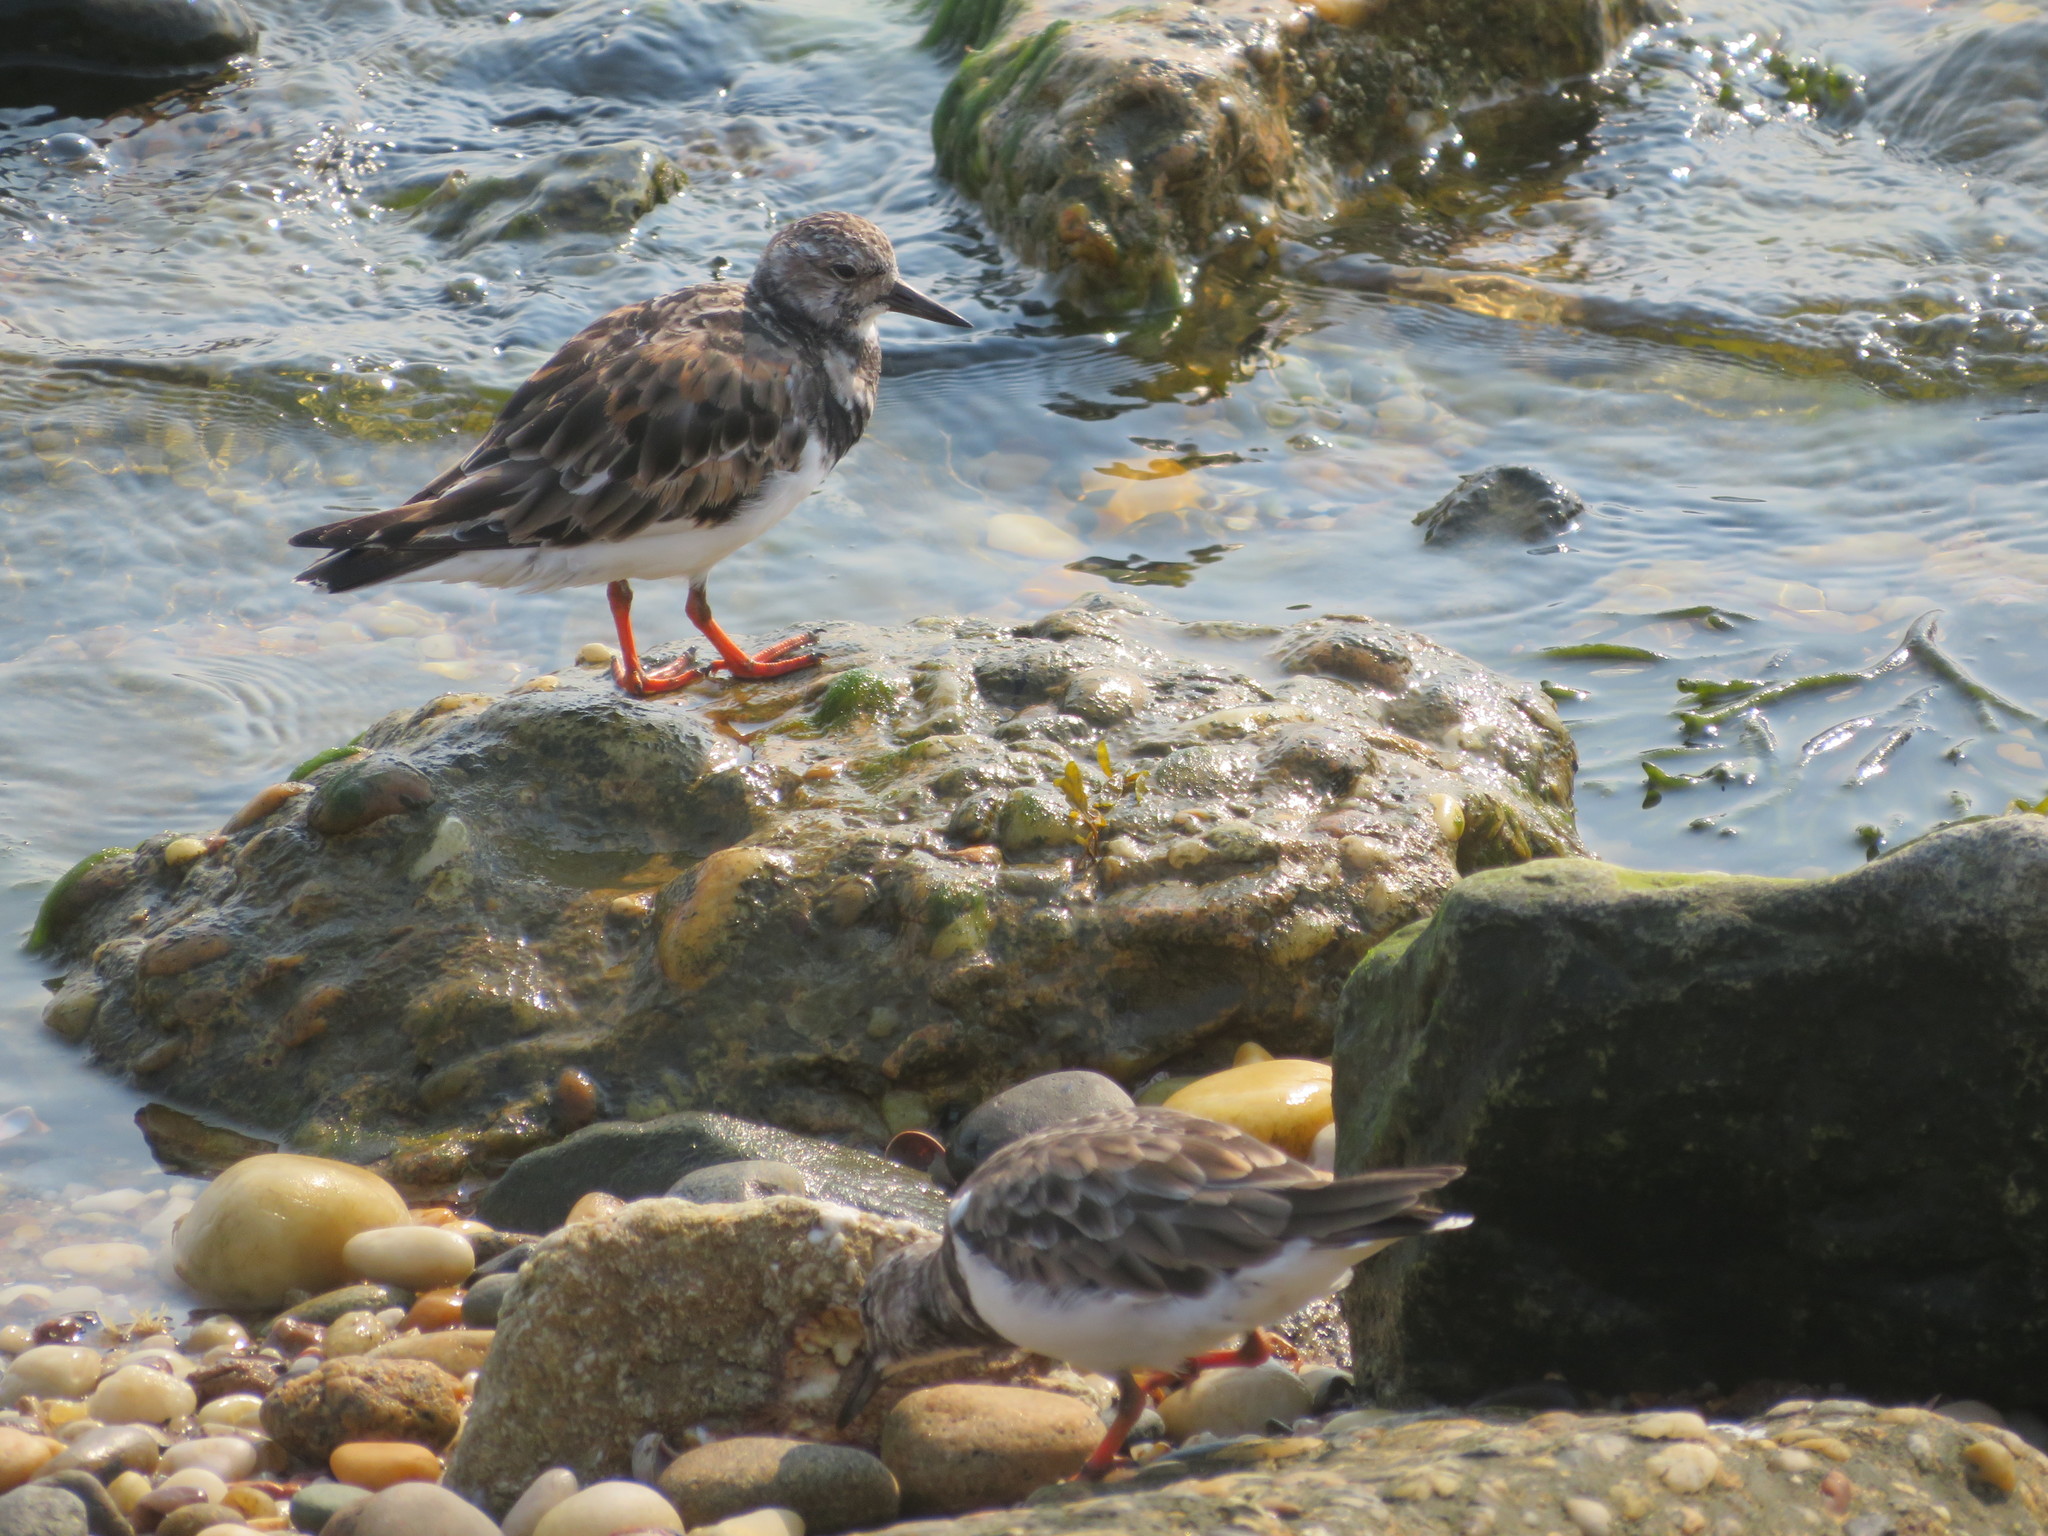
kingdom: Animalia
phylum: Chordata
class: Aves
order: Charadriiformes
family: Scolopacidae
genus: Arenaria
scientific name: Arenaria interpres
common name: Ruddy turnstone
